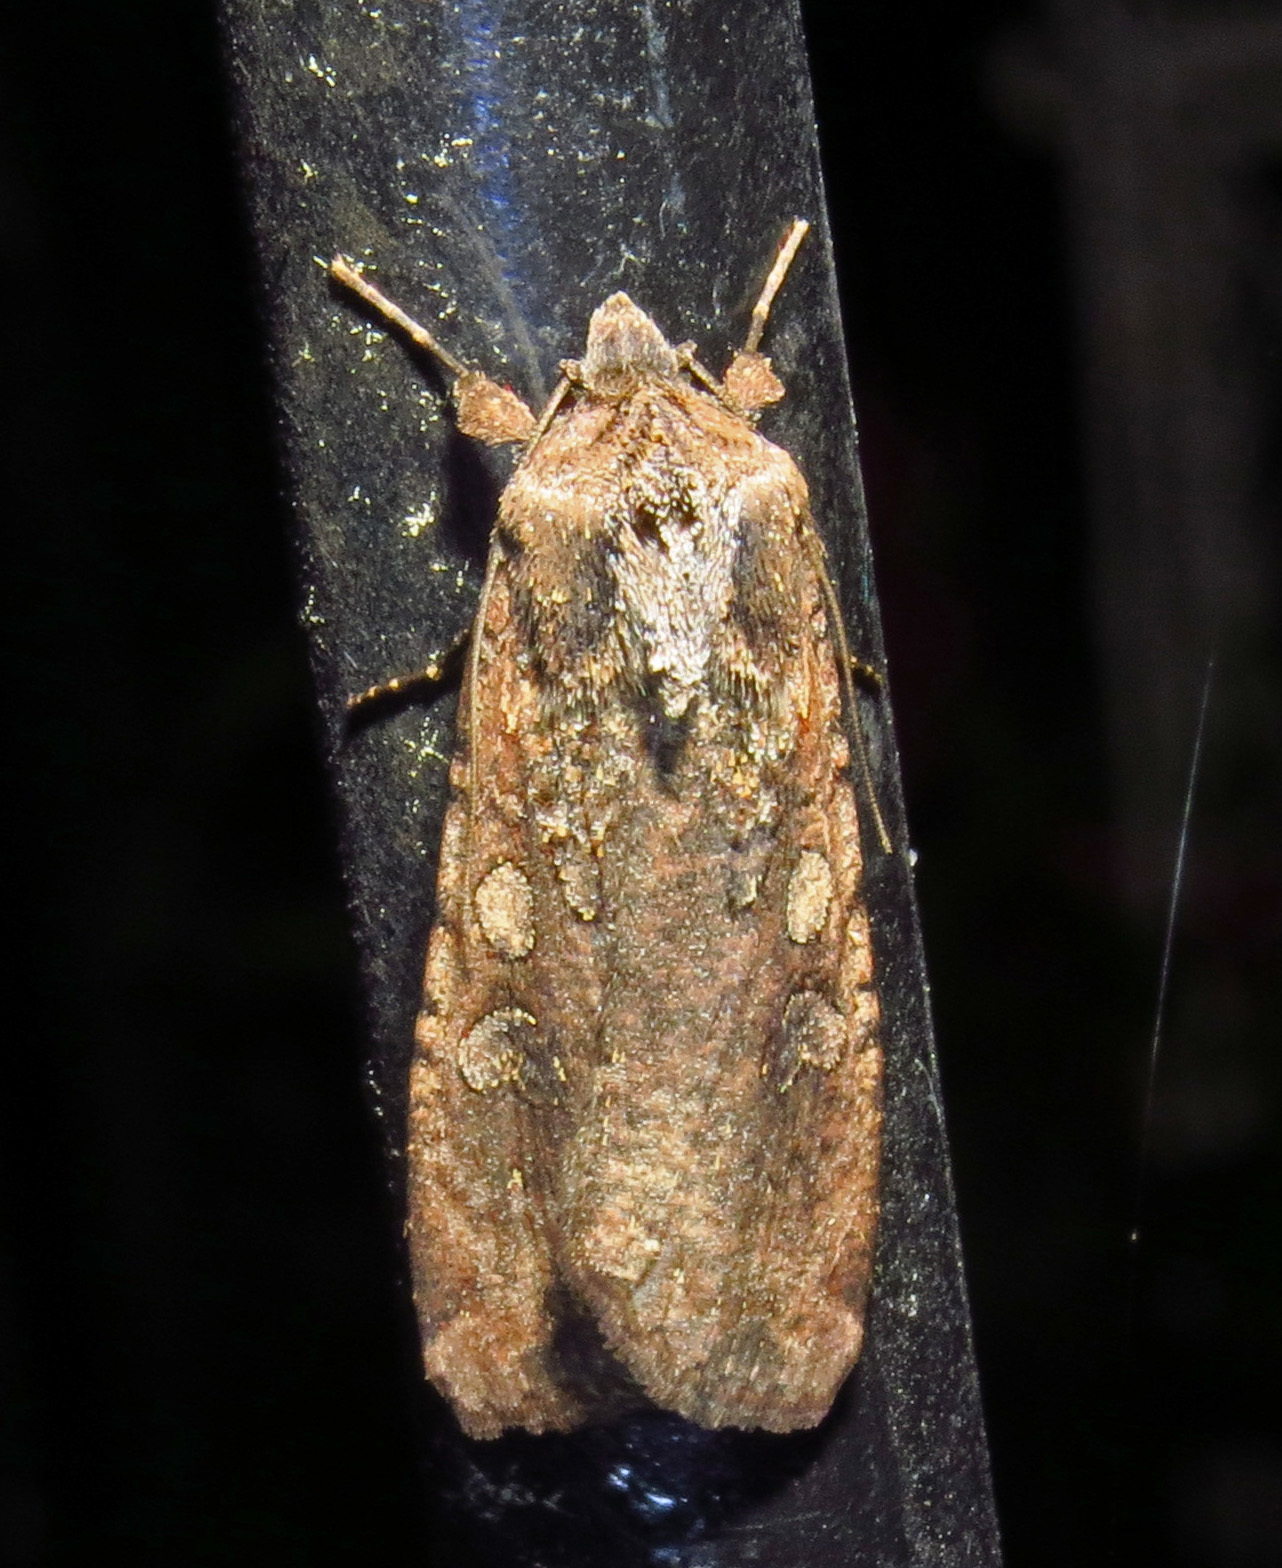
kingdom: Animalia
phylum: Arthropoda
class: Insecta
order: Lepidoptera
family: Noctuidae
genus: Peridroma
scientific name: Peridroma saucia
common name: Pearly underwing
